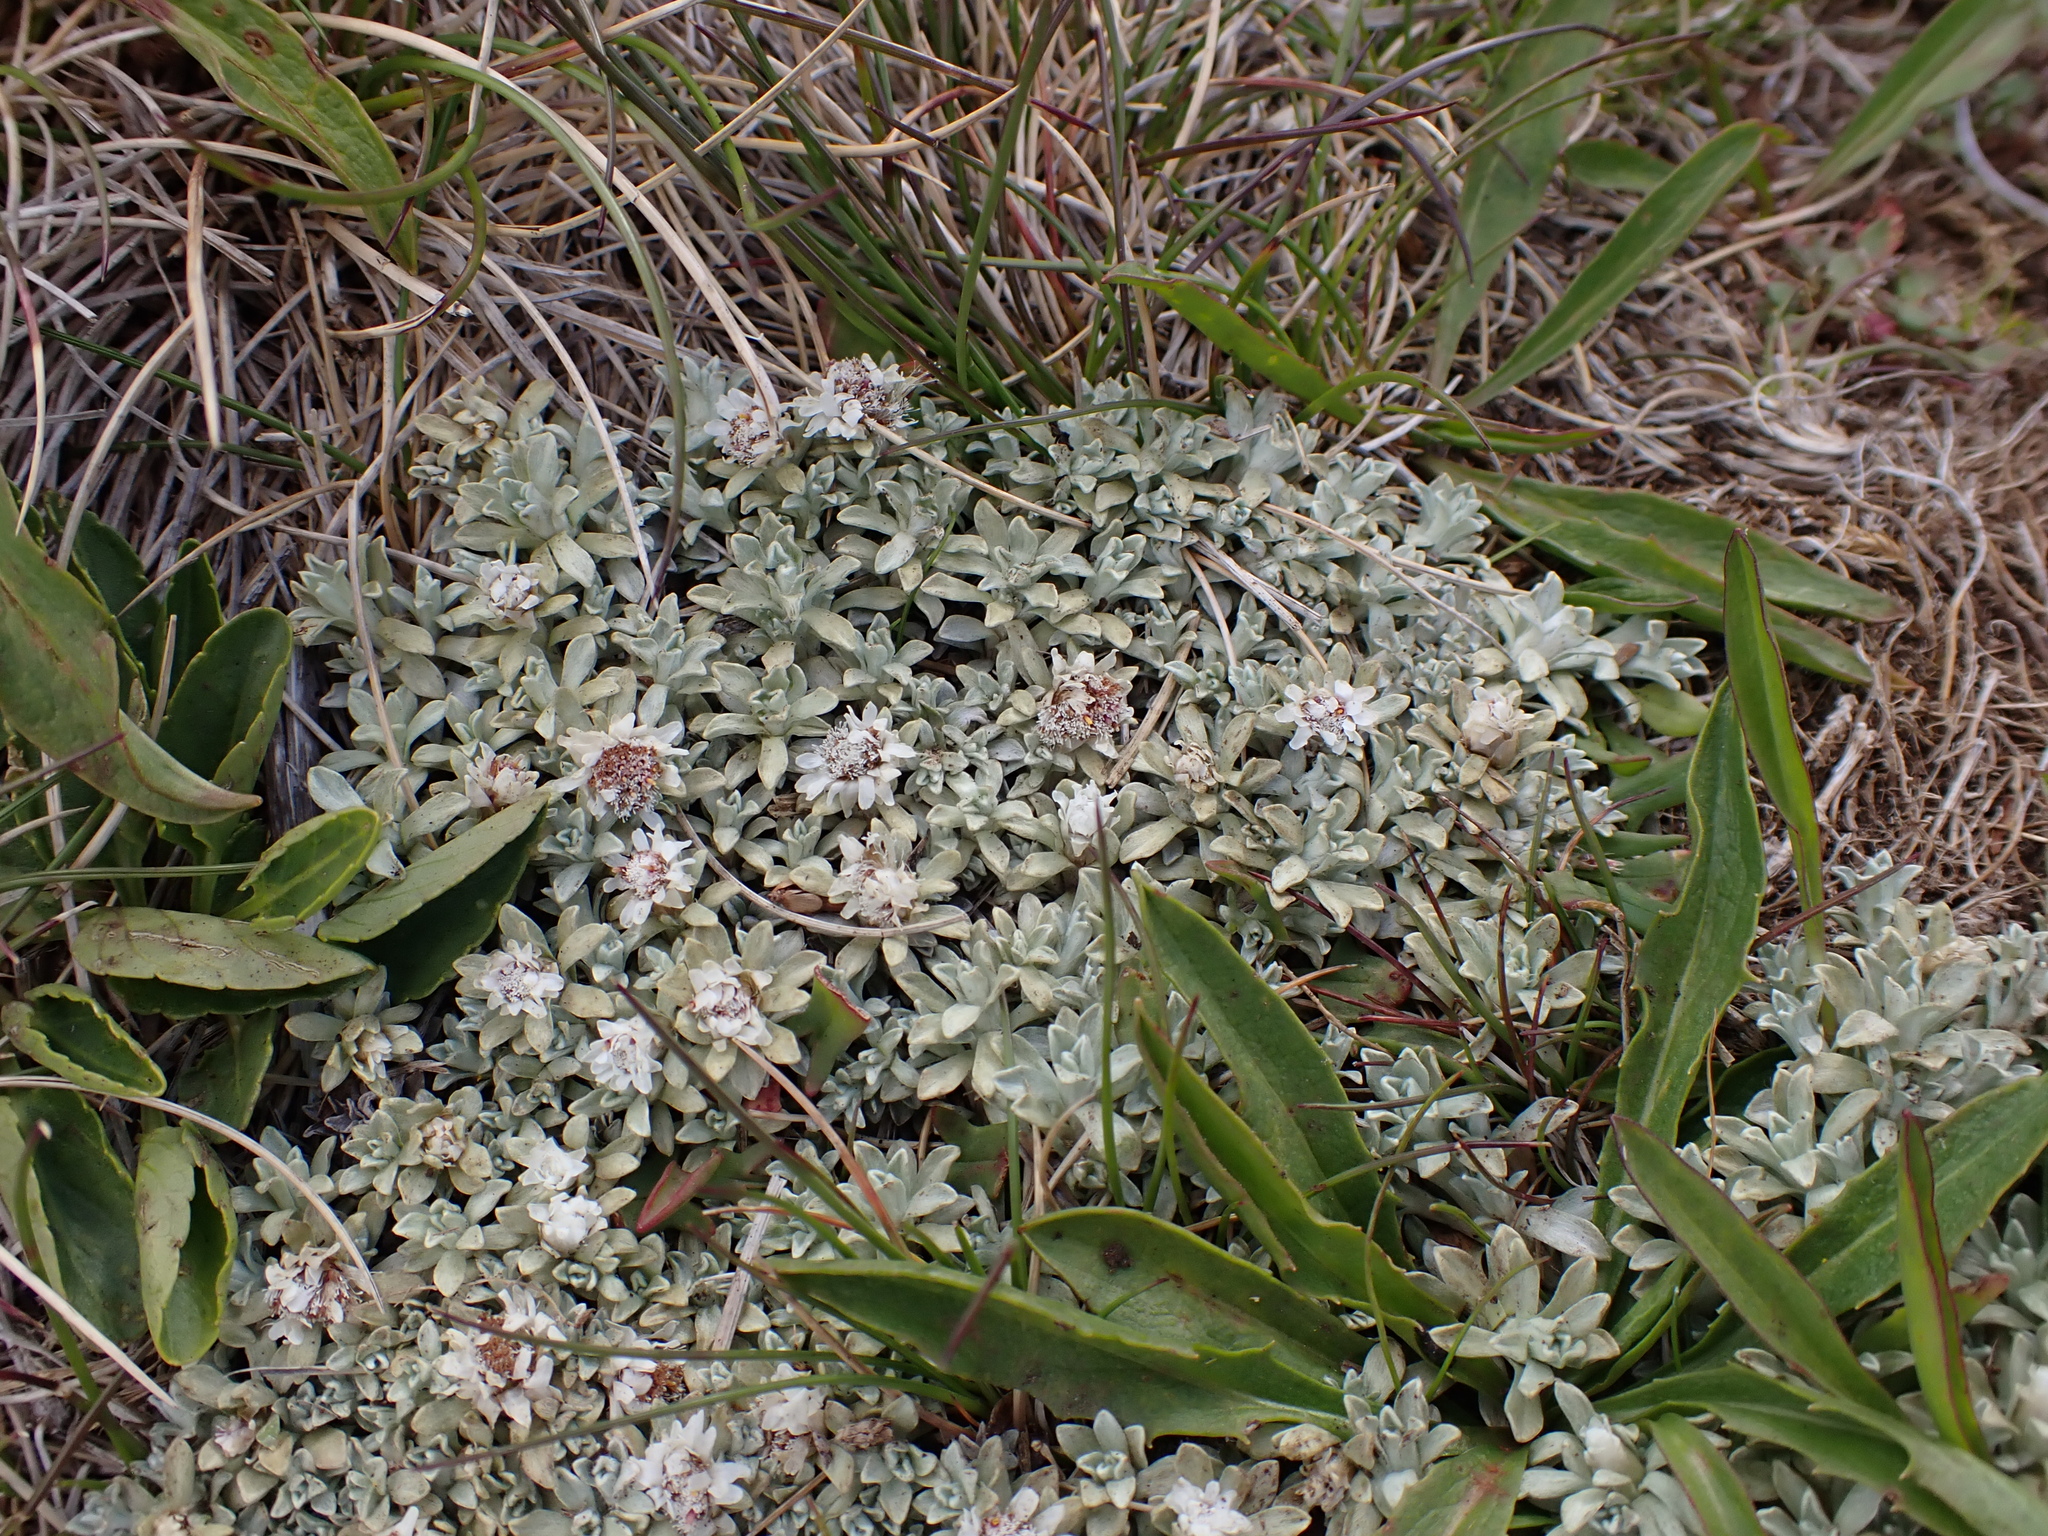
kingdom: Plantae
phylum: Tracheophyta
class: Magnoliopsida
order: Asterales
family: Asteraceae
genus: Ewartia
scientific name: Ewartia nubigena
